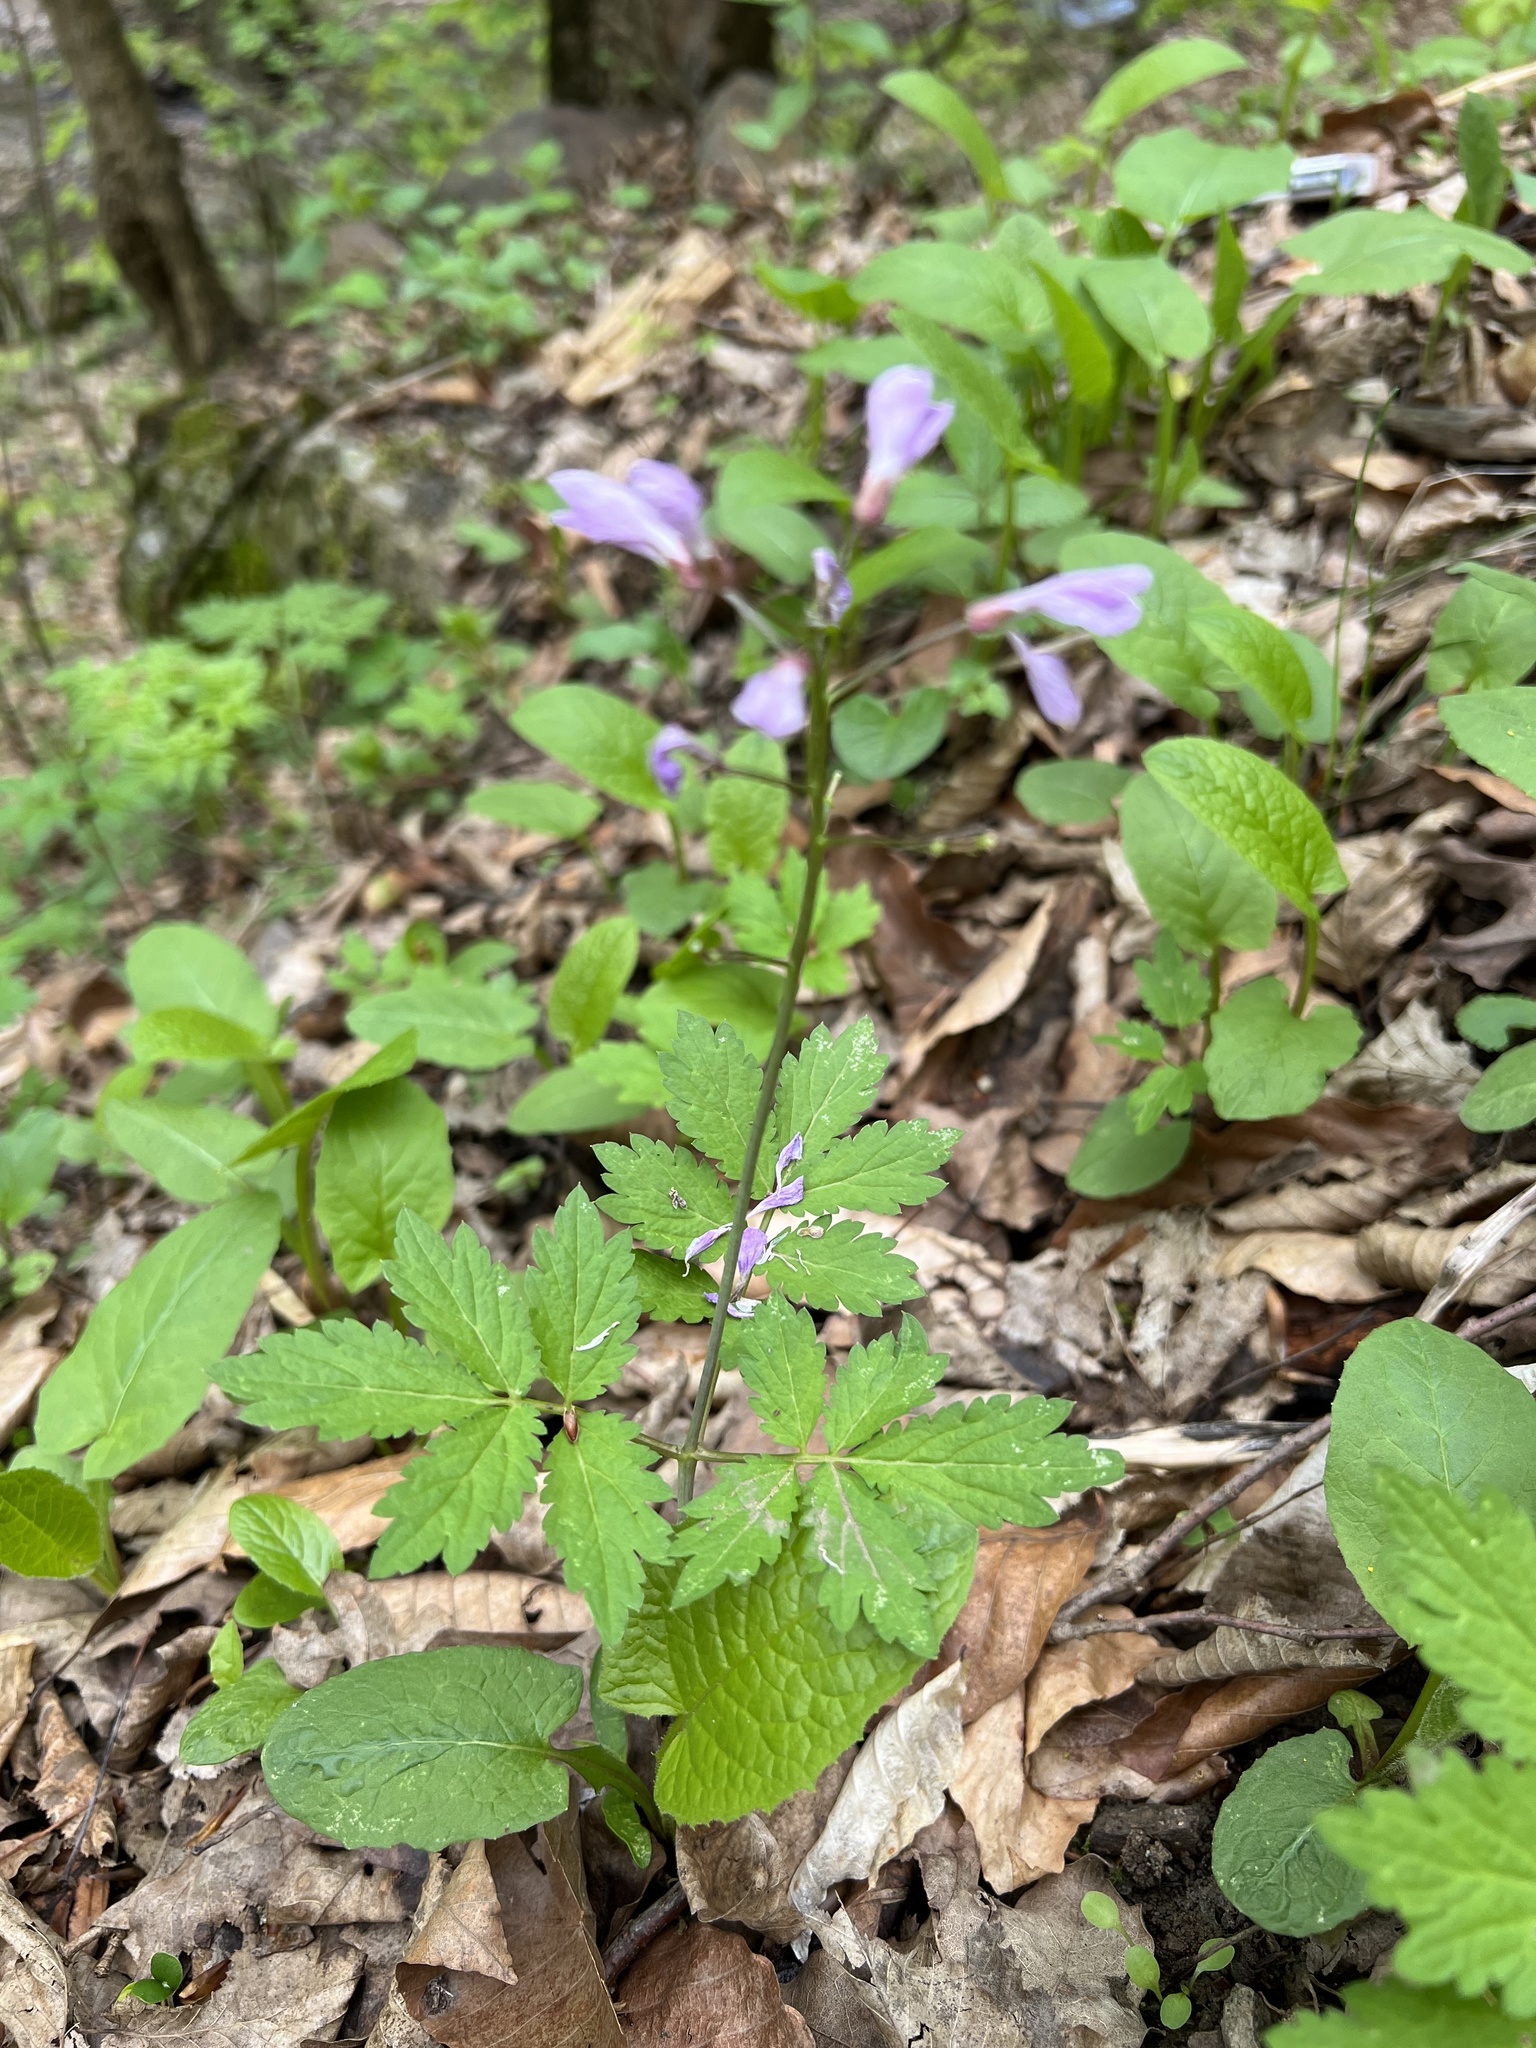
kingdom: Plantae
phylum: Tracheophyta
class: Magnoliopsida
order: Brassicales
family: Brassicaceae
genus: Cardamine
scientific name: Cardamine bulbifera
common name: Coralroot bittercress
